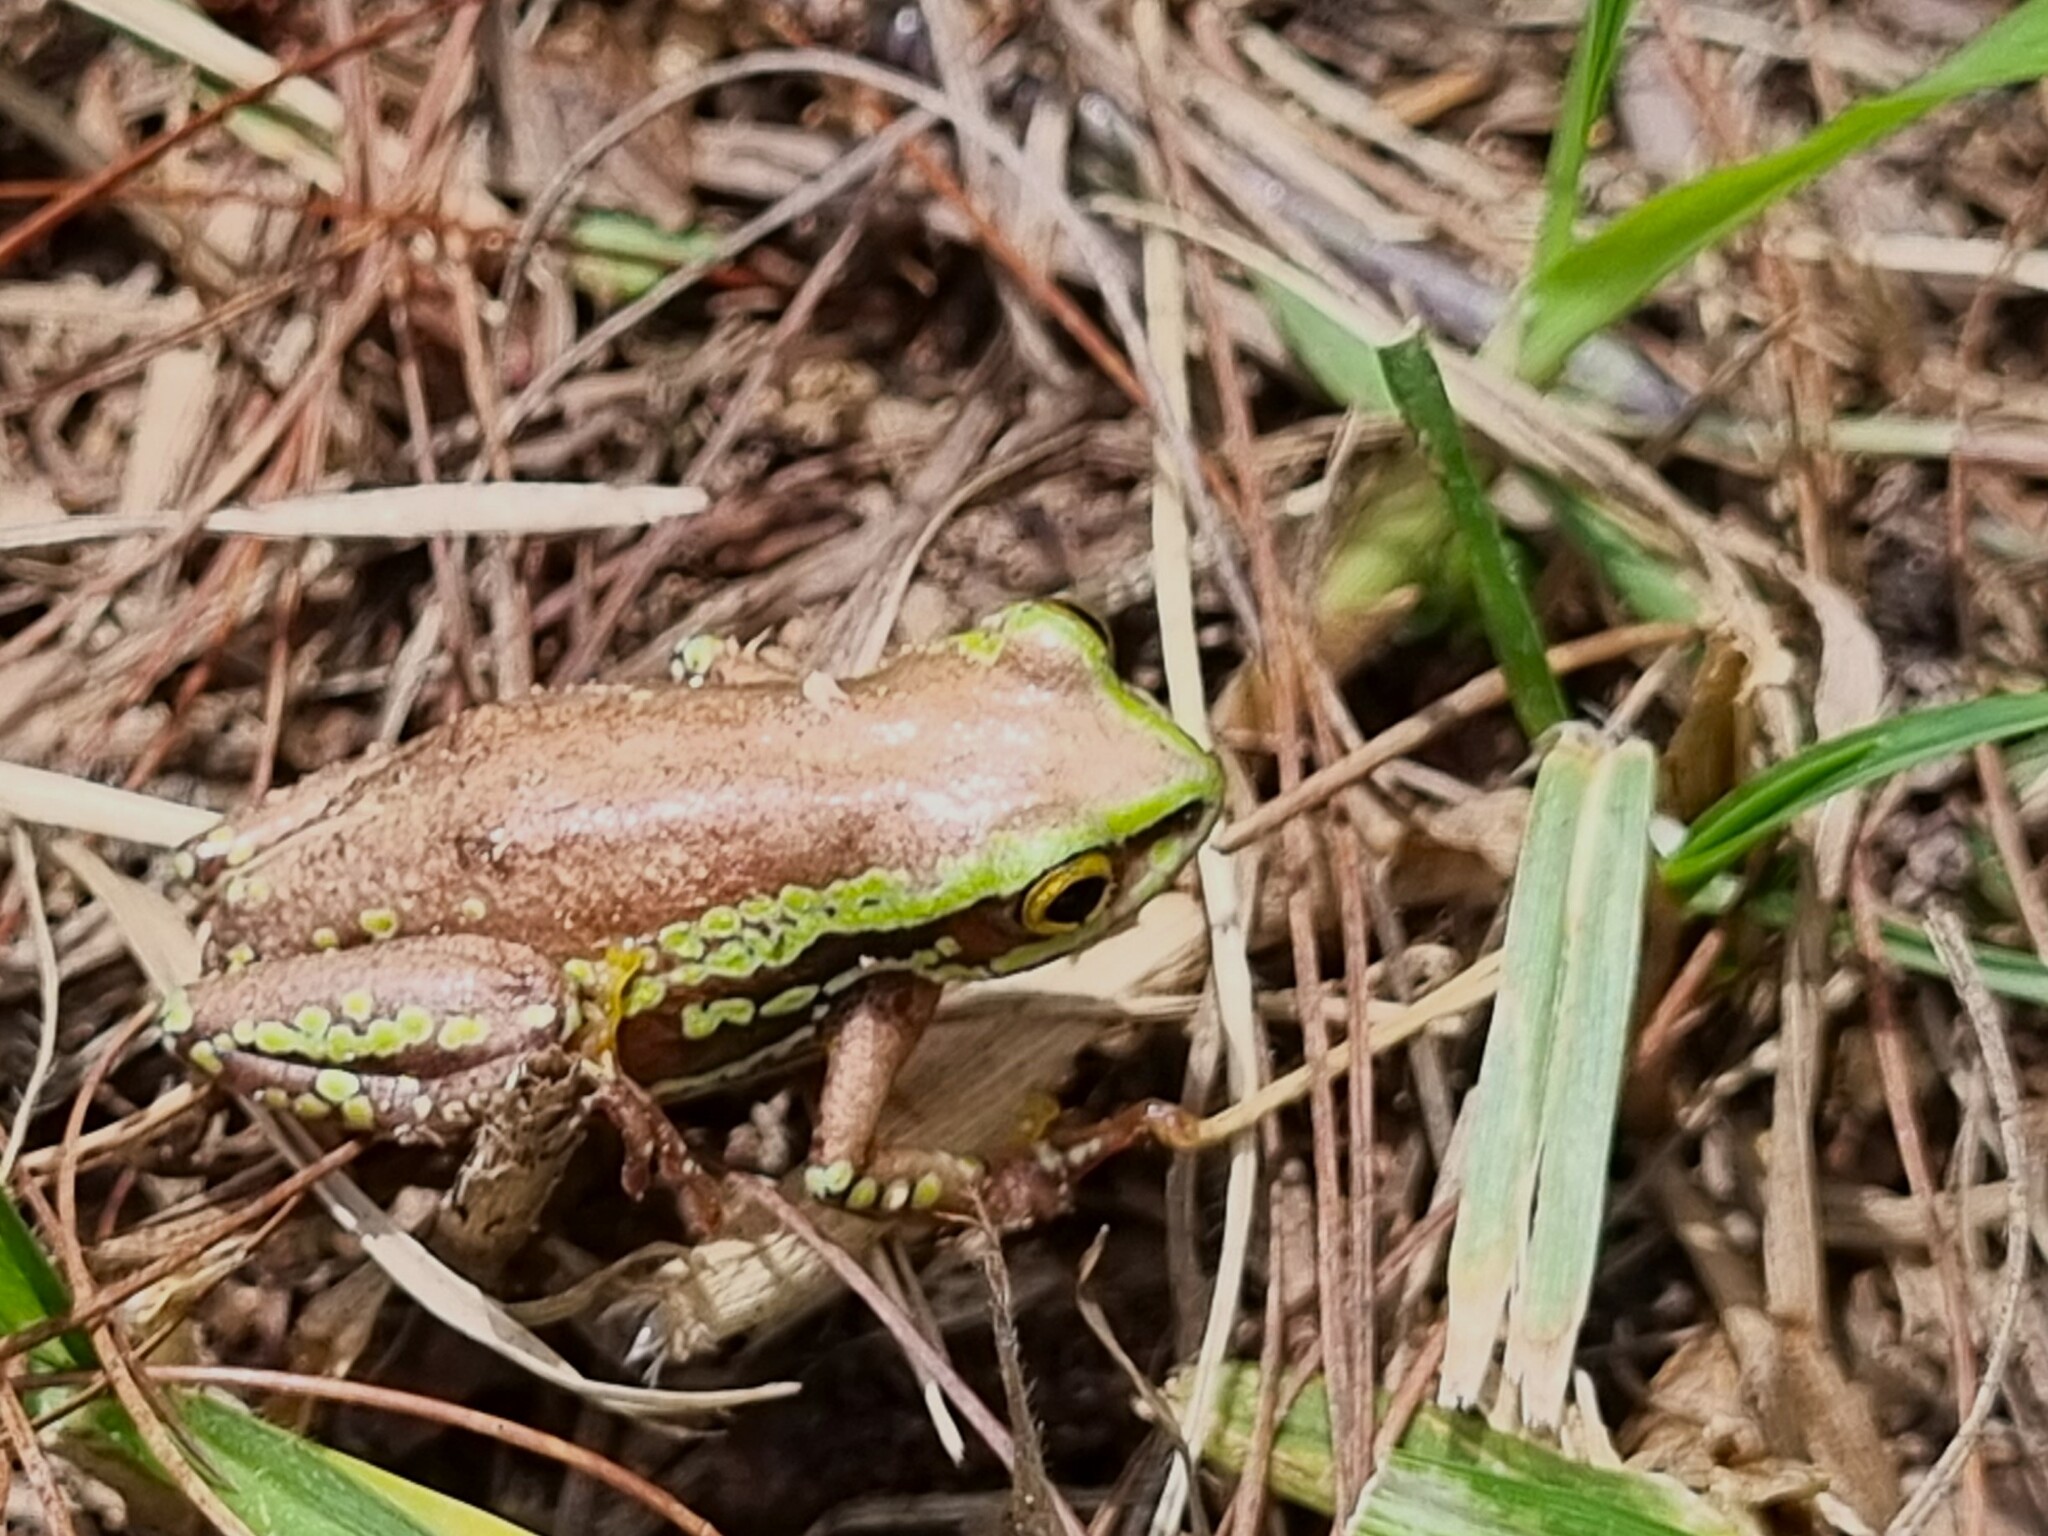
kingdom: Animalia
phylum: Chordata
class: Amphibia
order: Anura
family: Hyperoliidae
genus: Hyperolius
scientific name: Hyperolius pictus
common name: Variable reed frog
